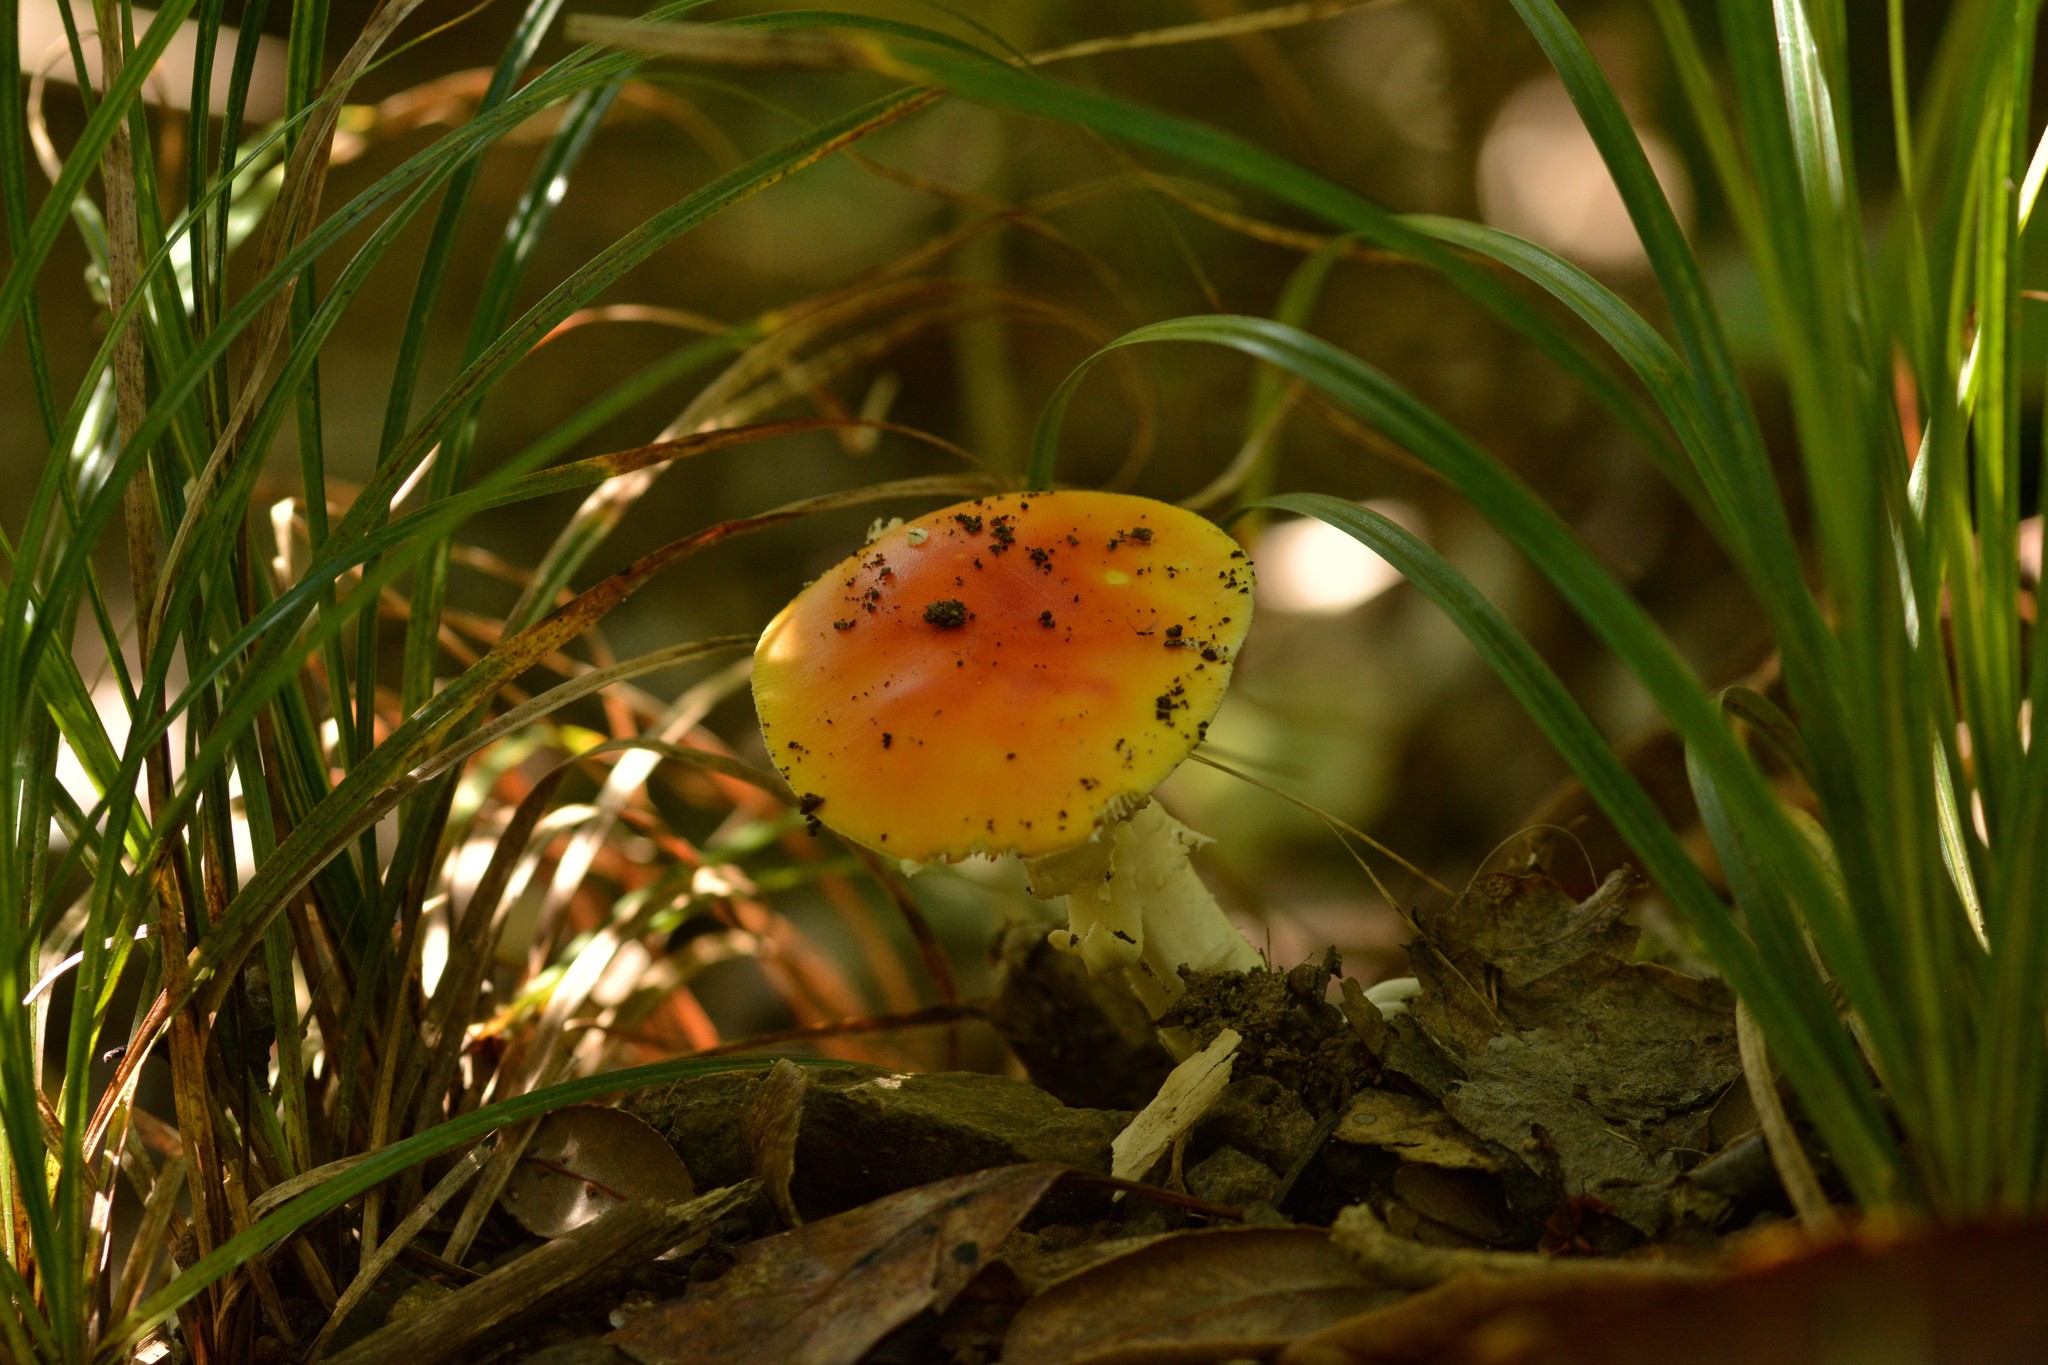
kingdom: Fungi
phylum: Basidiomycota
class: Agaricomycetes
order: Agaricales
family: Amanitaceae
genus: Amanita
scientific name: Amanita muscaria
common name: Fly agaric
